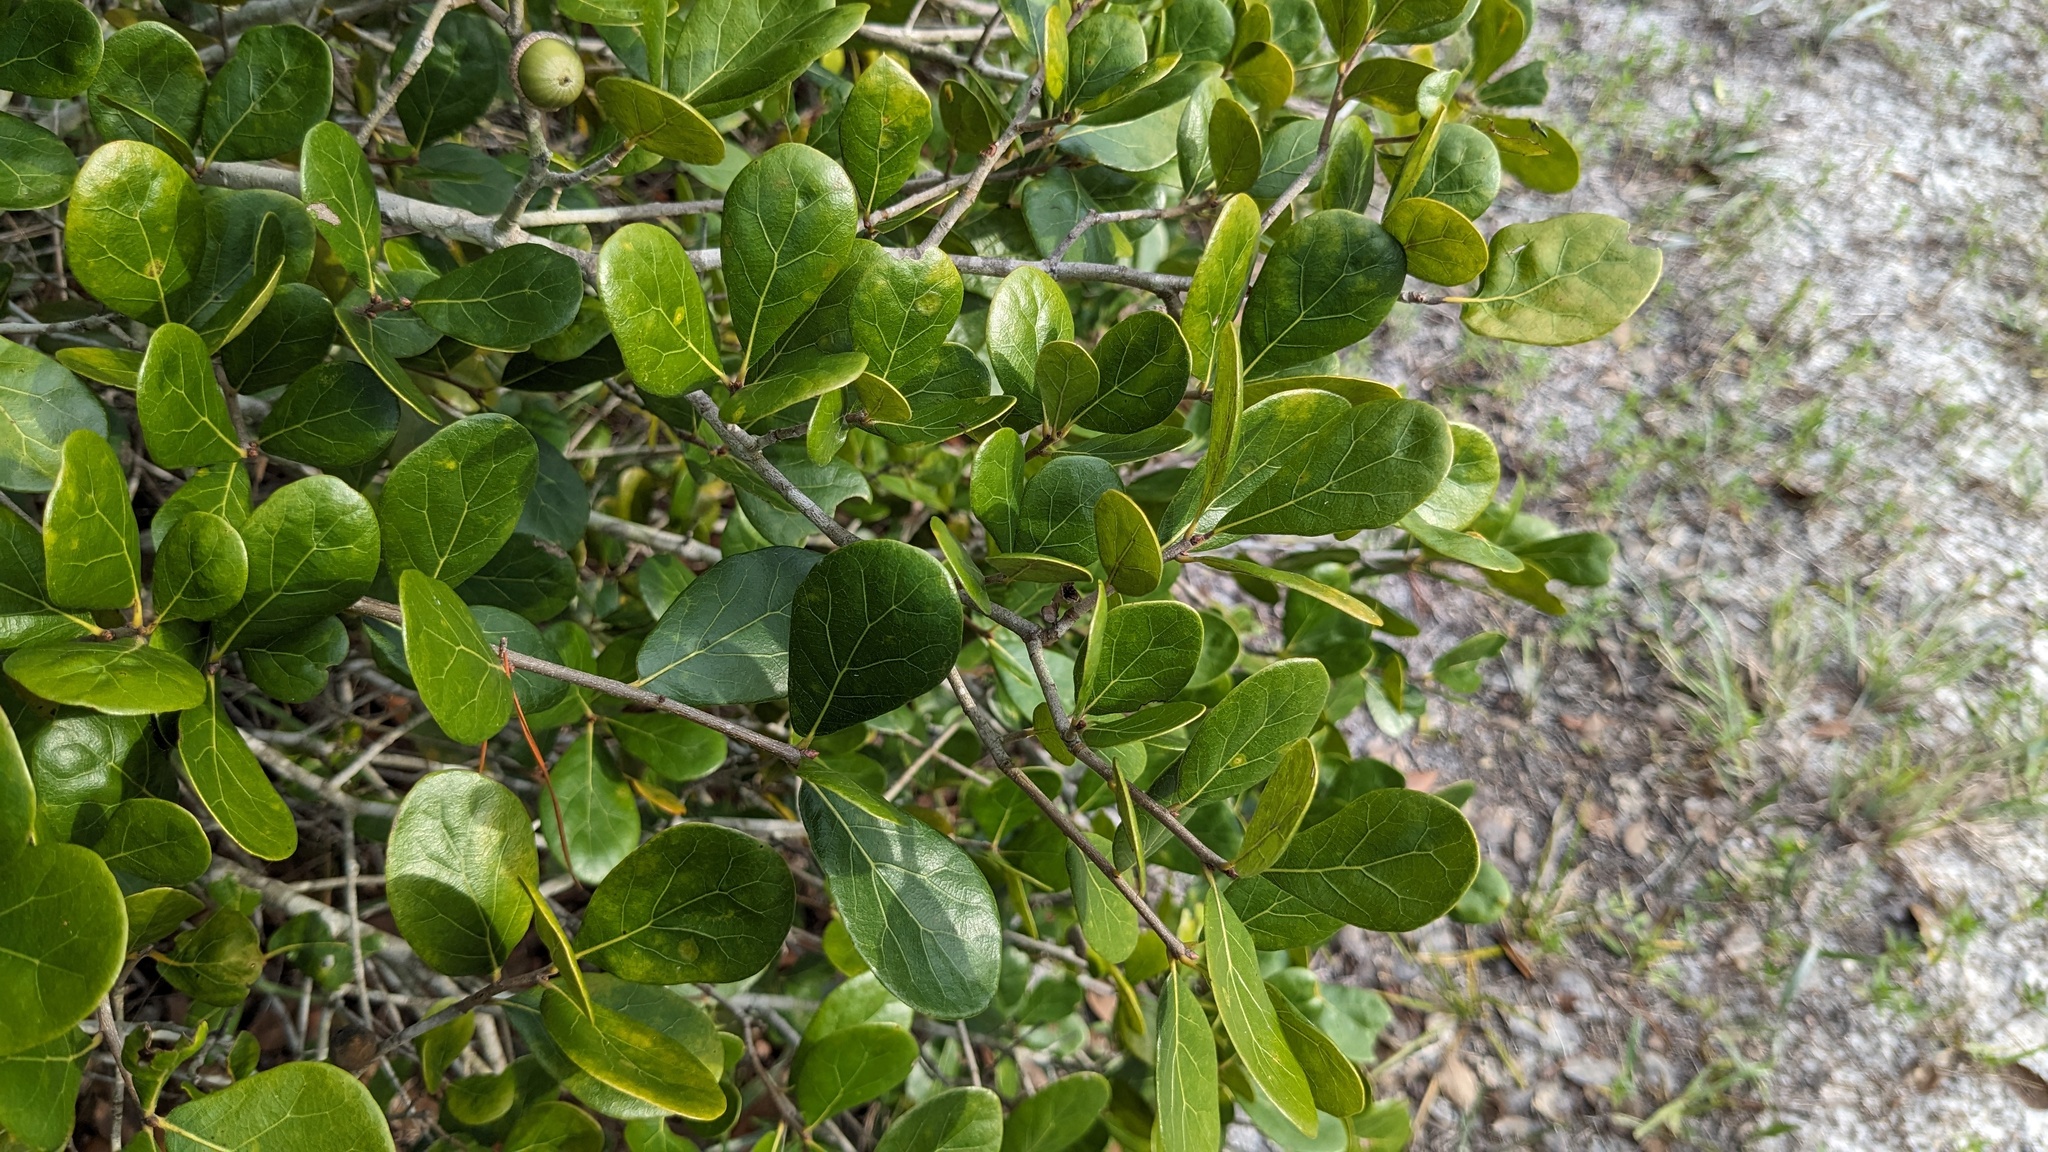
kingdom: Plantae
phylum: Tracheophyta
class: Magnoliopsida
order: Fagales
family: Fagaceae
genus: Quercus
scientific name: Quercus myrtifolia
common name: Myrtle oak
